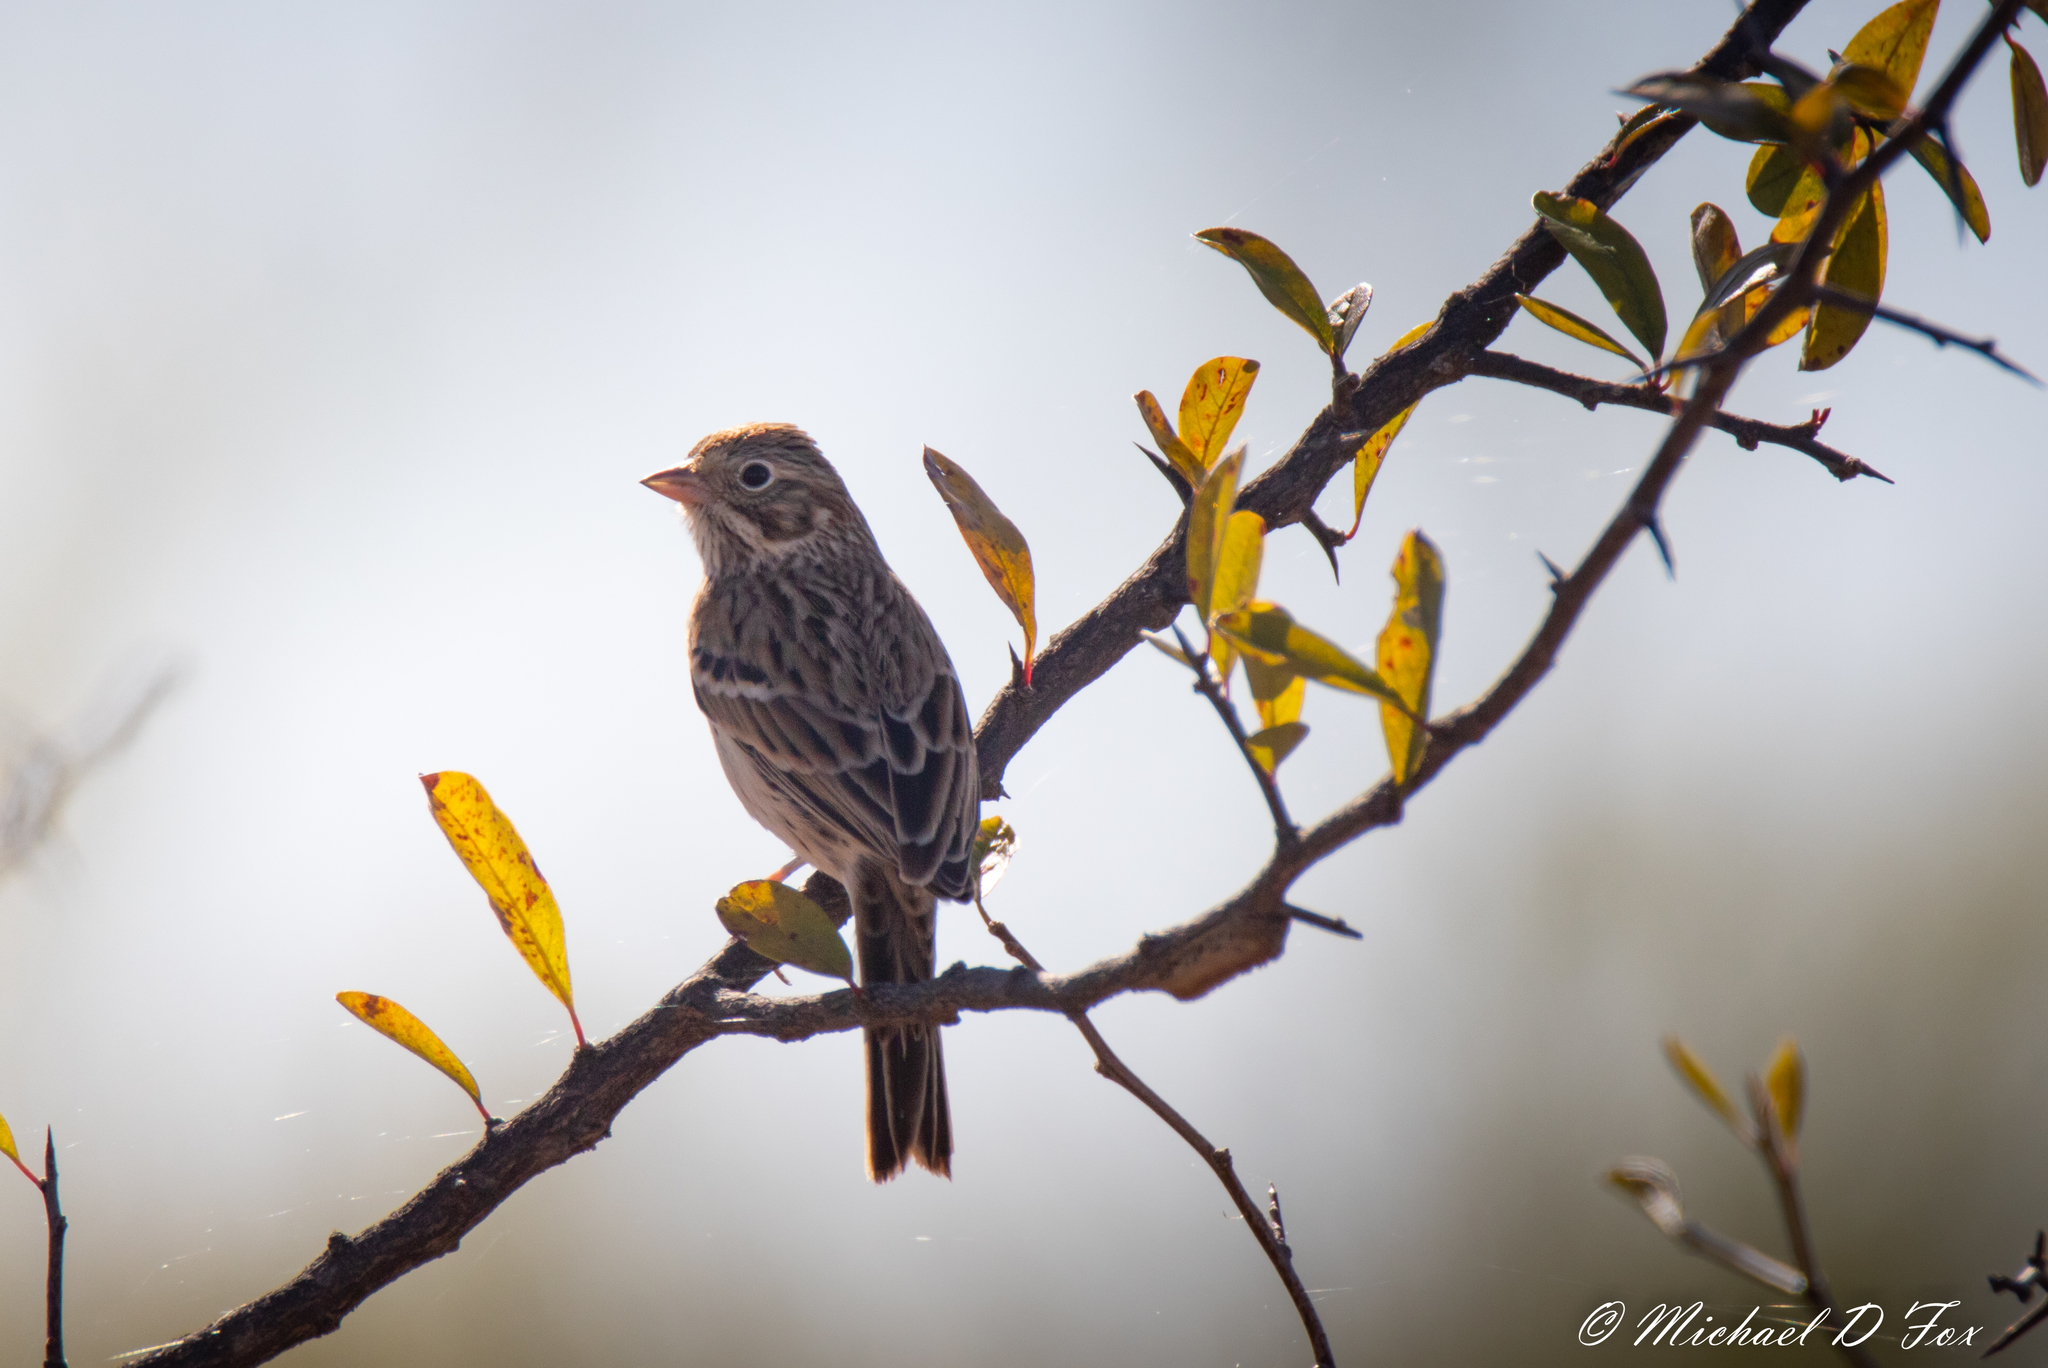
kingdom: Animalia
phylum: Chordata
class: Aves
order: Passeriformes
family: Passerellidae
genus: Pooecetes
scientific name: Pooecetes gramineus
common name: Vesper sparrow
